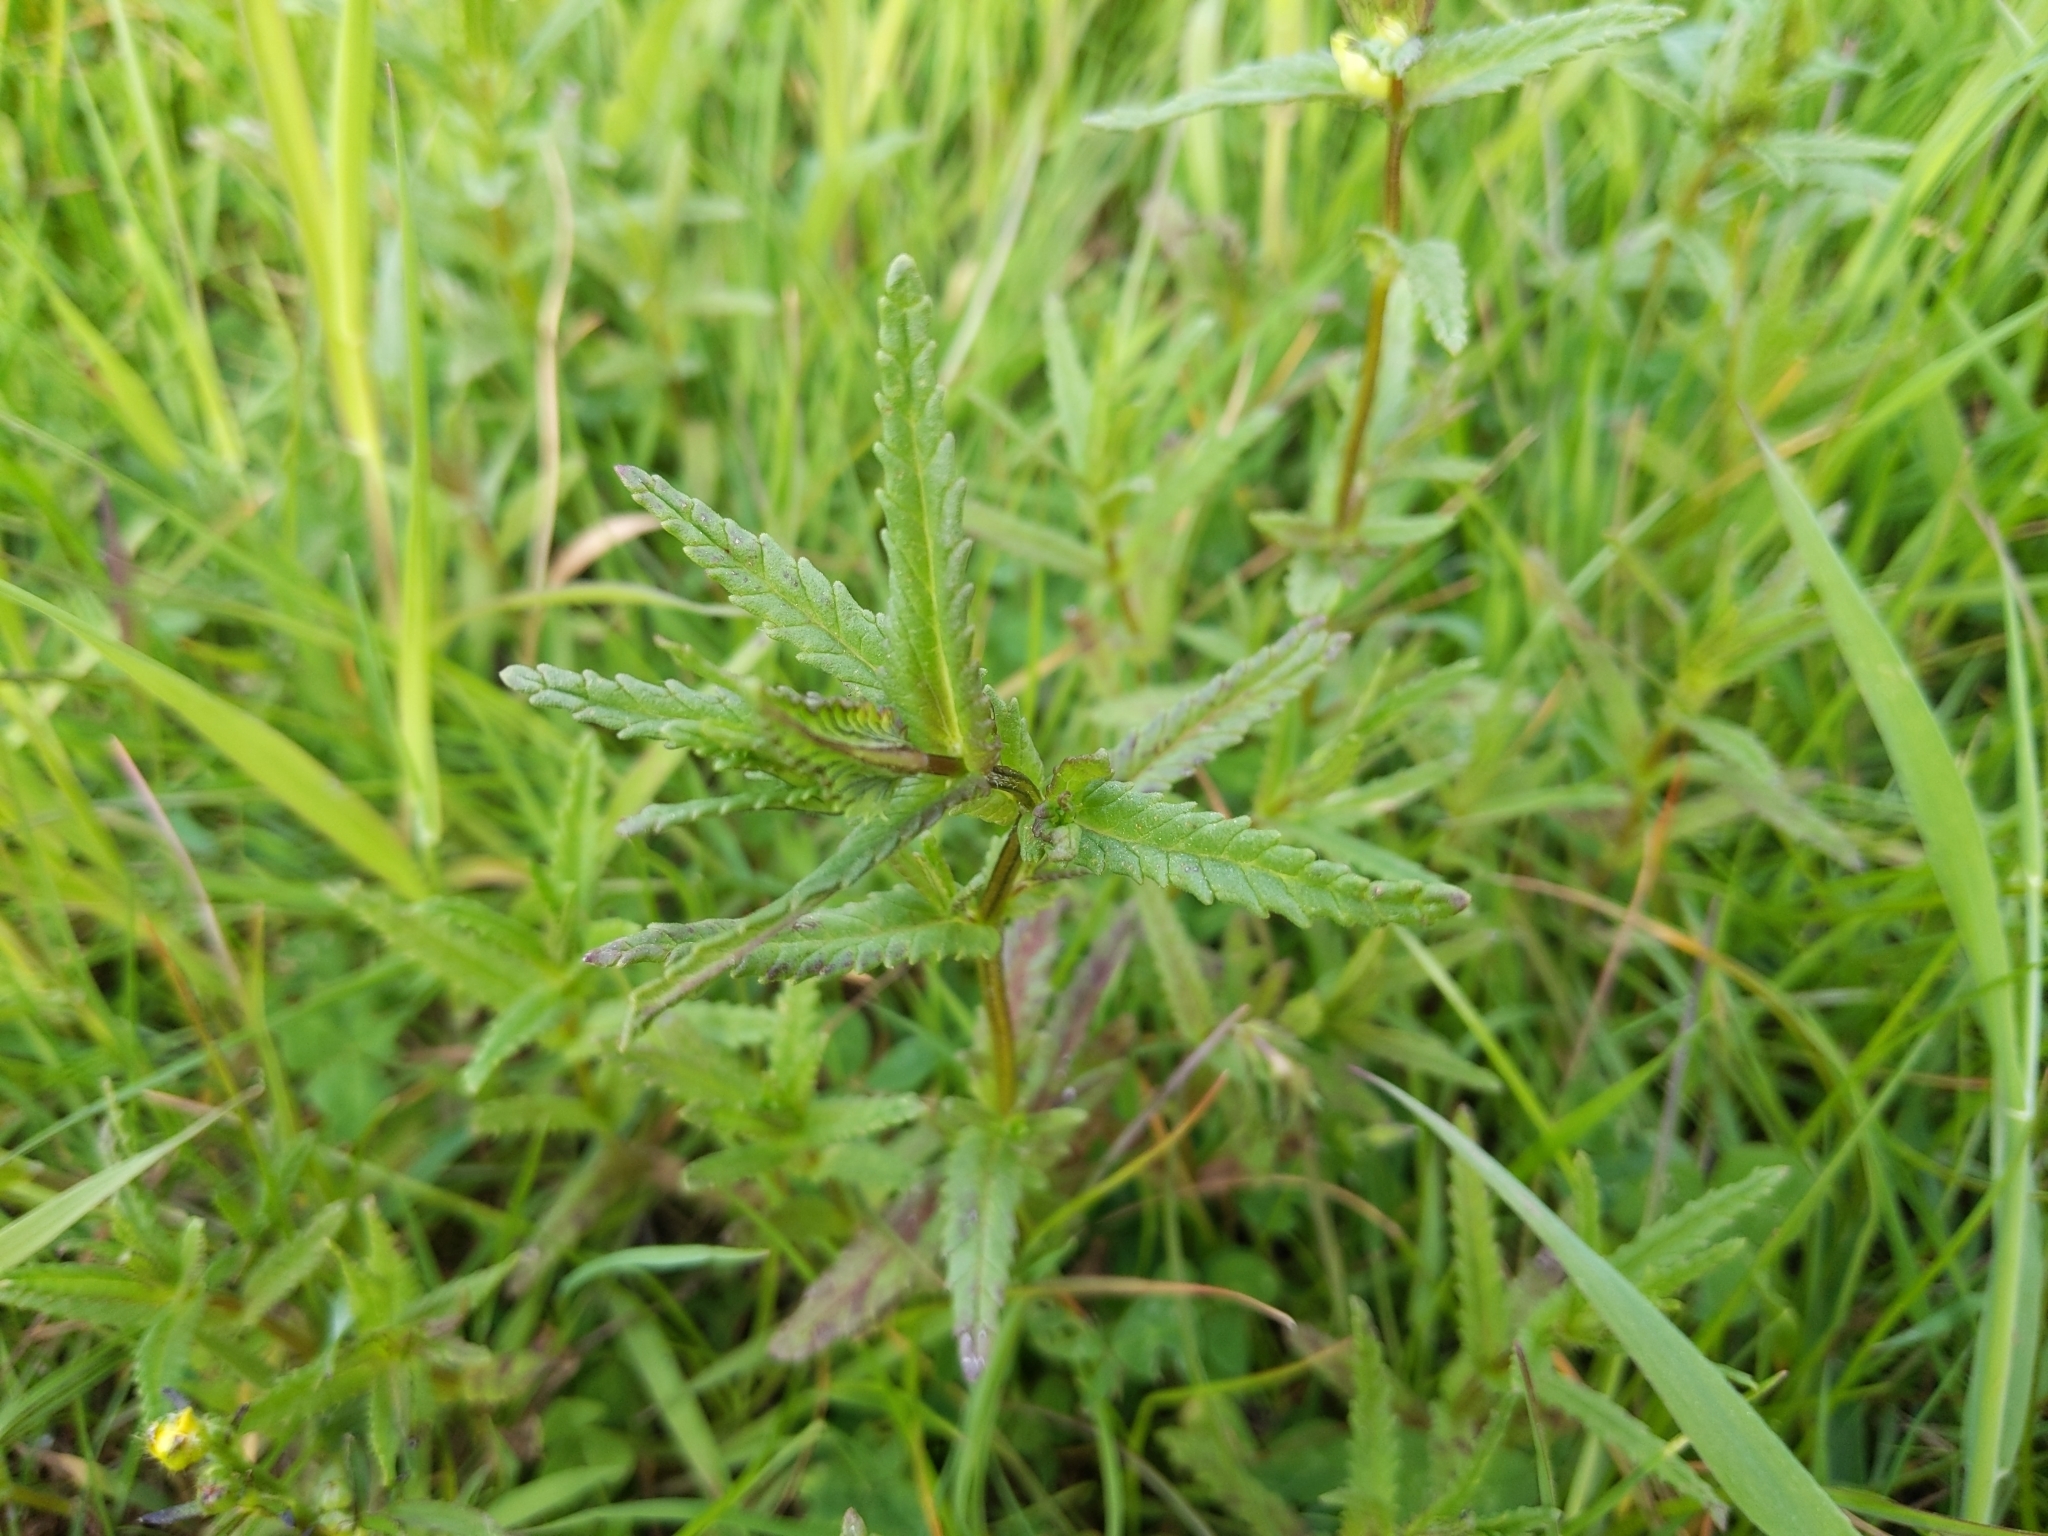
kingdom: Plantae
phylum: Tracheophyta
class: Magnoliopsida
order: Lamiales
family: Orobanchaceae
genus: Rhinanthus
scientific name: Rhinanthus minor
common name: Yellow-rattle
